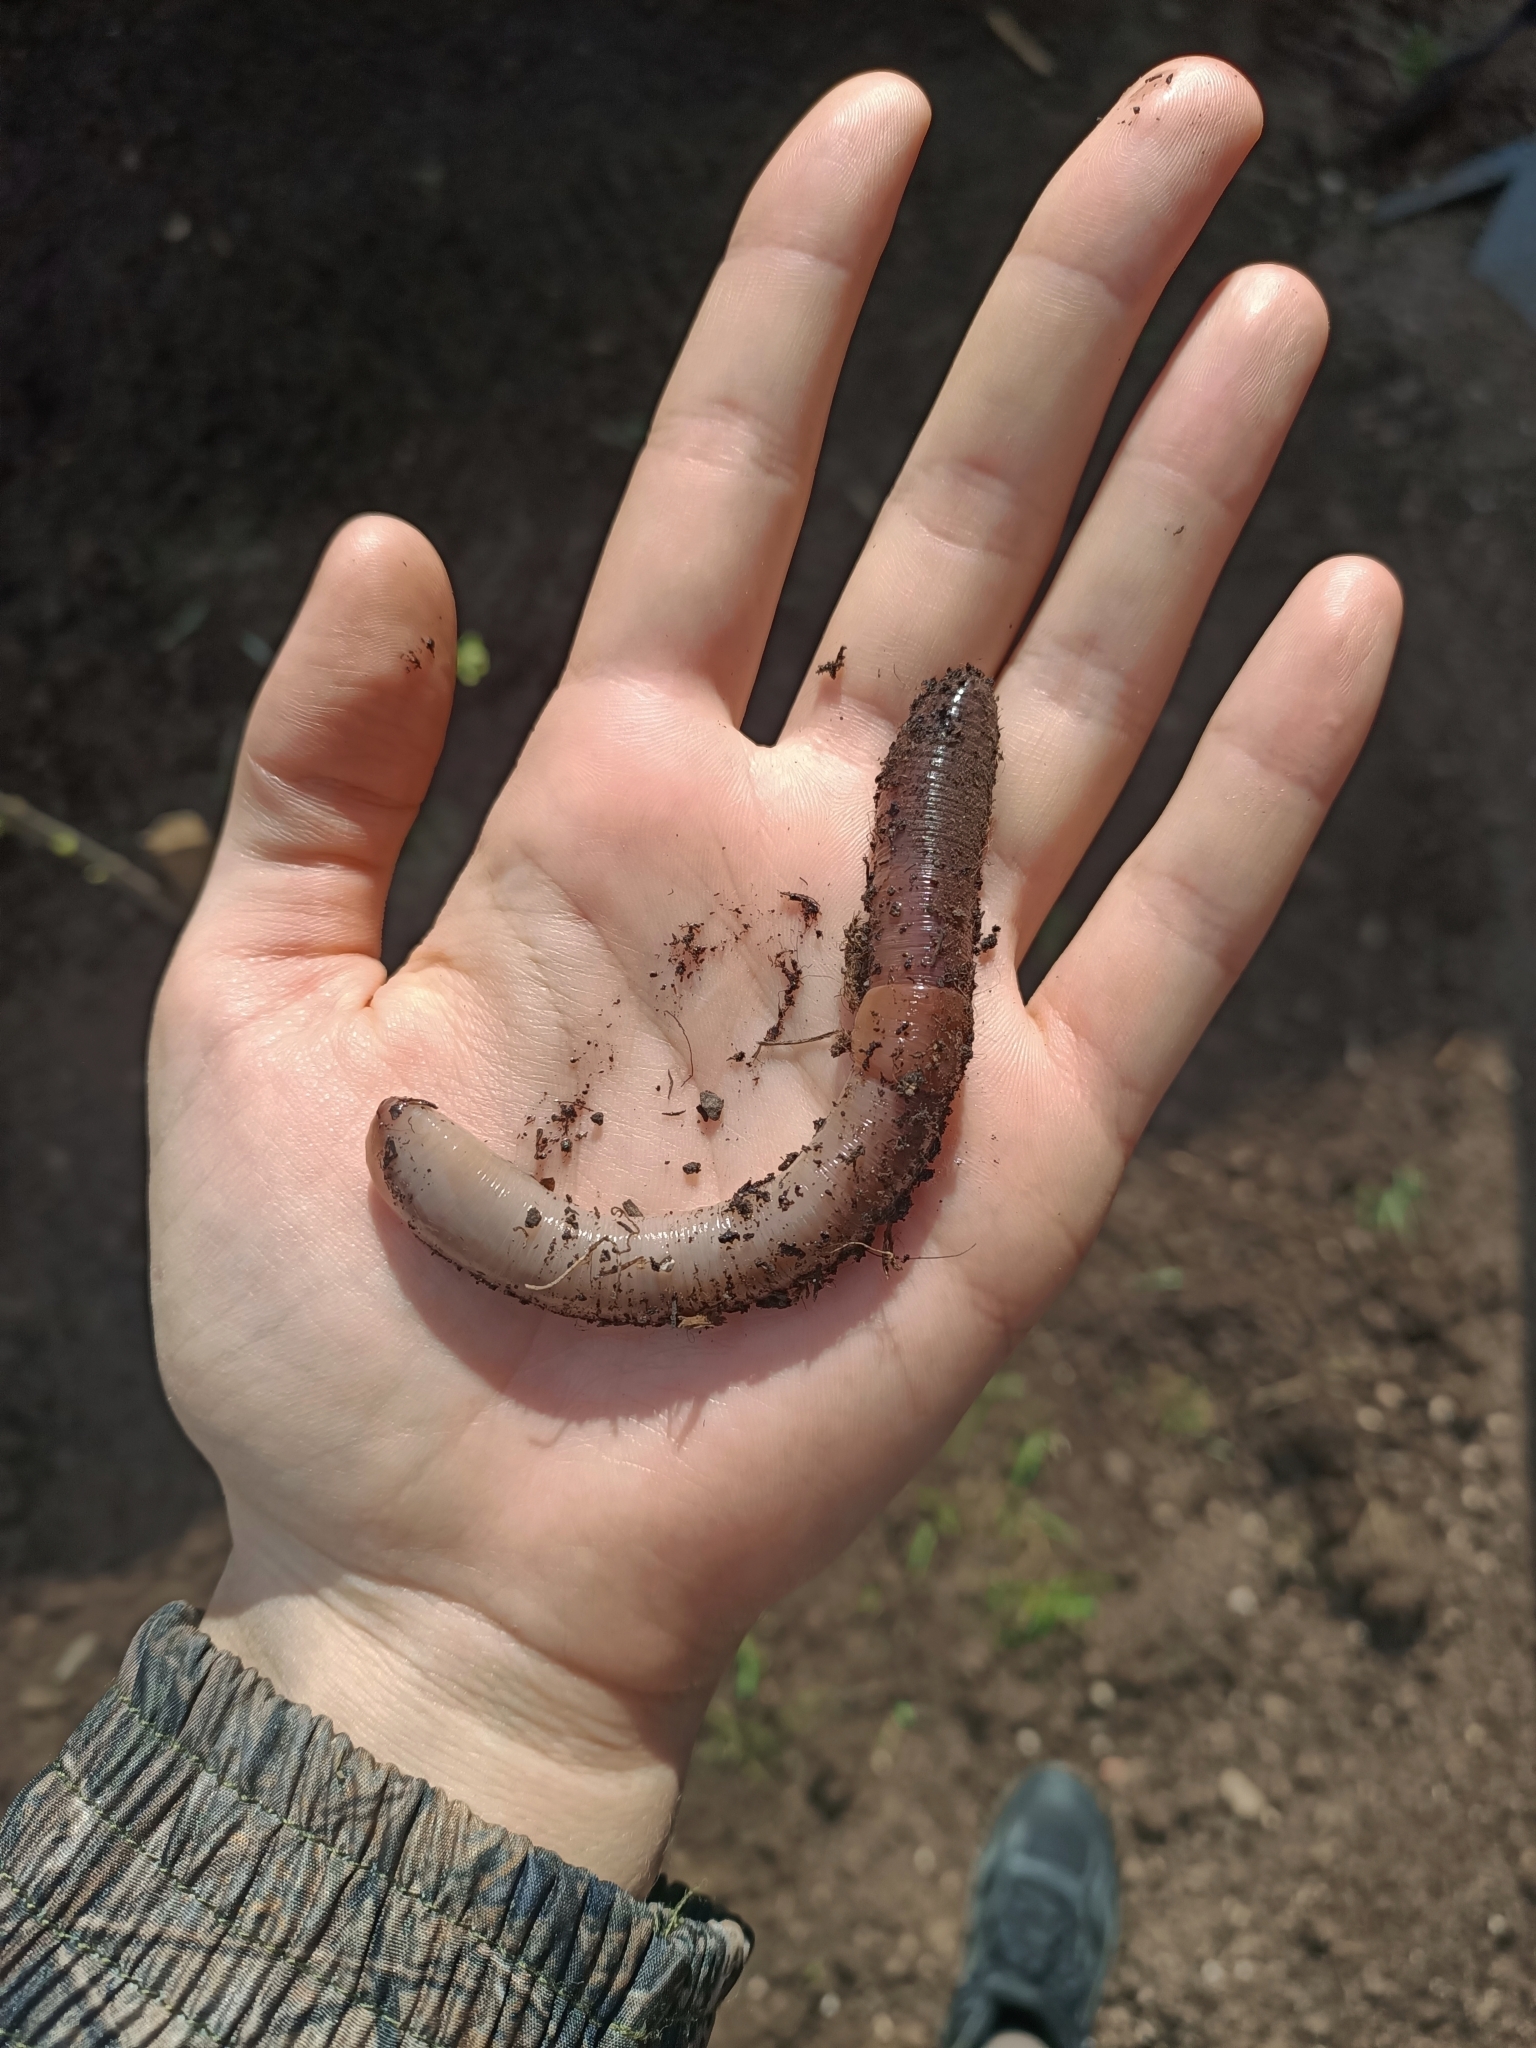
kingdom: Animalia
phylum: Annelida
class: Clitellata
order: Crassiclitellata
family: Lumbricidae
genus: Lumbricus
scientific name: Lumbricus terrestris
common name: Common earthworm
